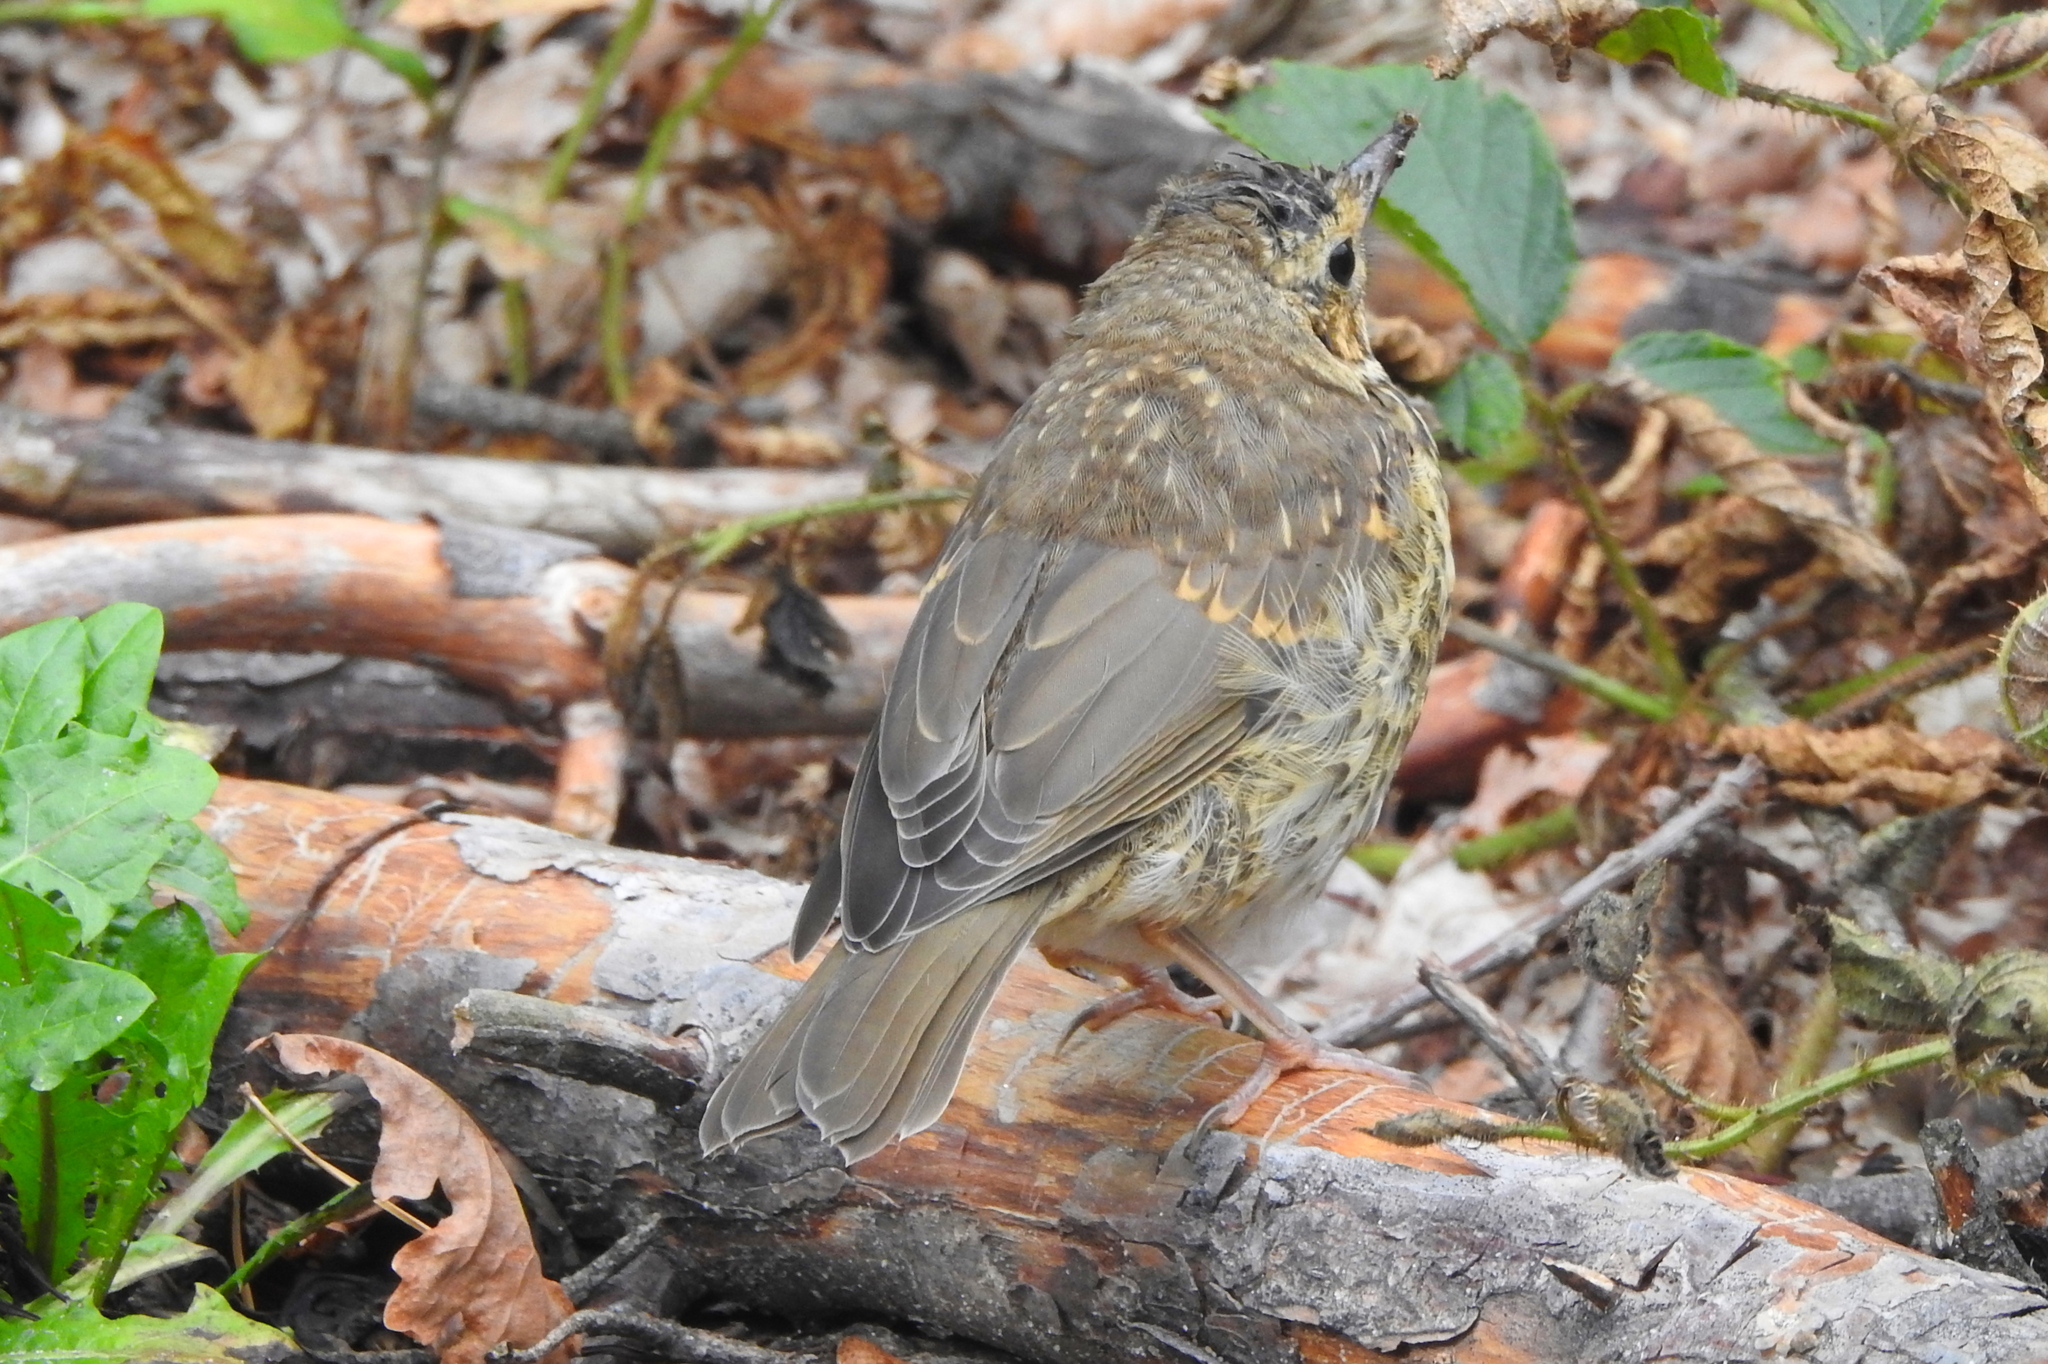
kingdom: Animalia
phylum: Chordata
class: Aves
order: Passeriformes
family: Turdidae
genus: Turdus
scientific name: Turdus philomelos
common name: Song thrush
